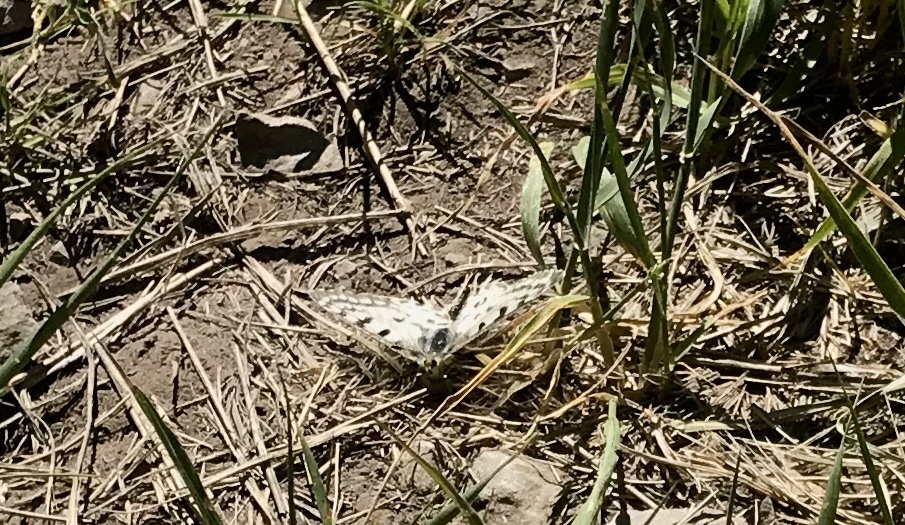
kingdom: Animalia
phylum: Arthropoda
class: Insecta
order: Lepidoptera
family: Papilionidae
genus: Parnassius
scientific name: Parnassius smintheus
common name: Mountain parnassian
